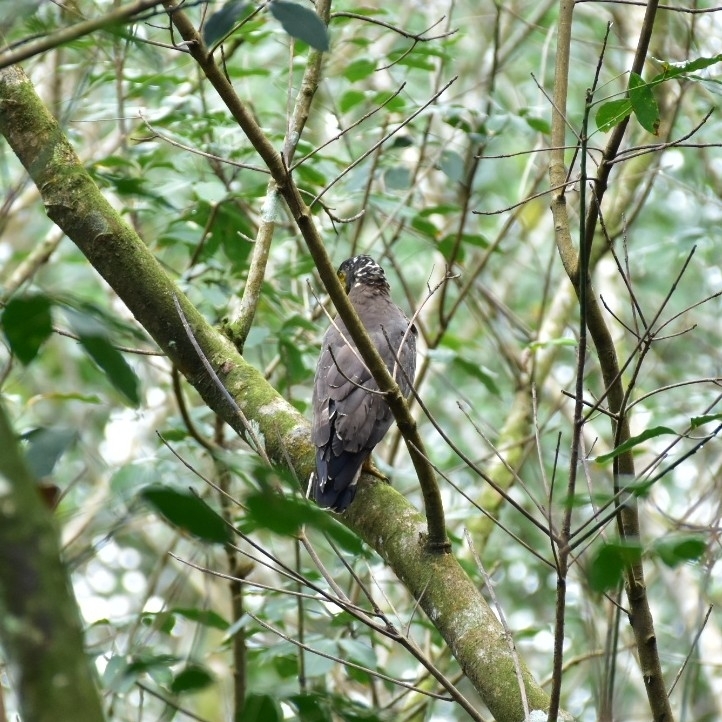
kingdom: Animalia
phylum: Chordata
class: Aves
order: Accipitriformes
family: Accipitridae
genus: Spilornis
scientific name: Spilornis cheela
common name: Crested serpent eagle
